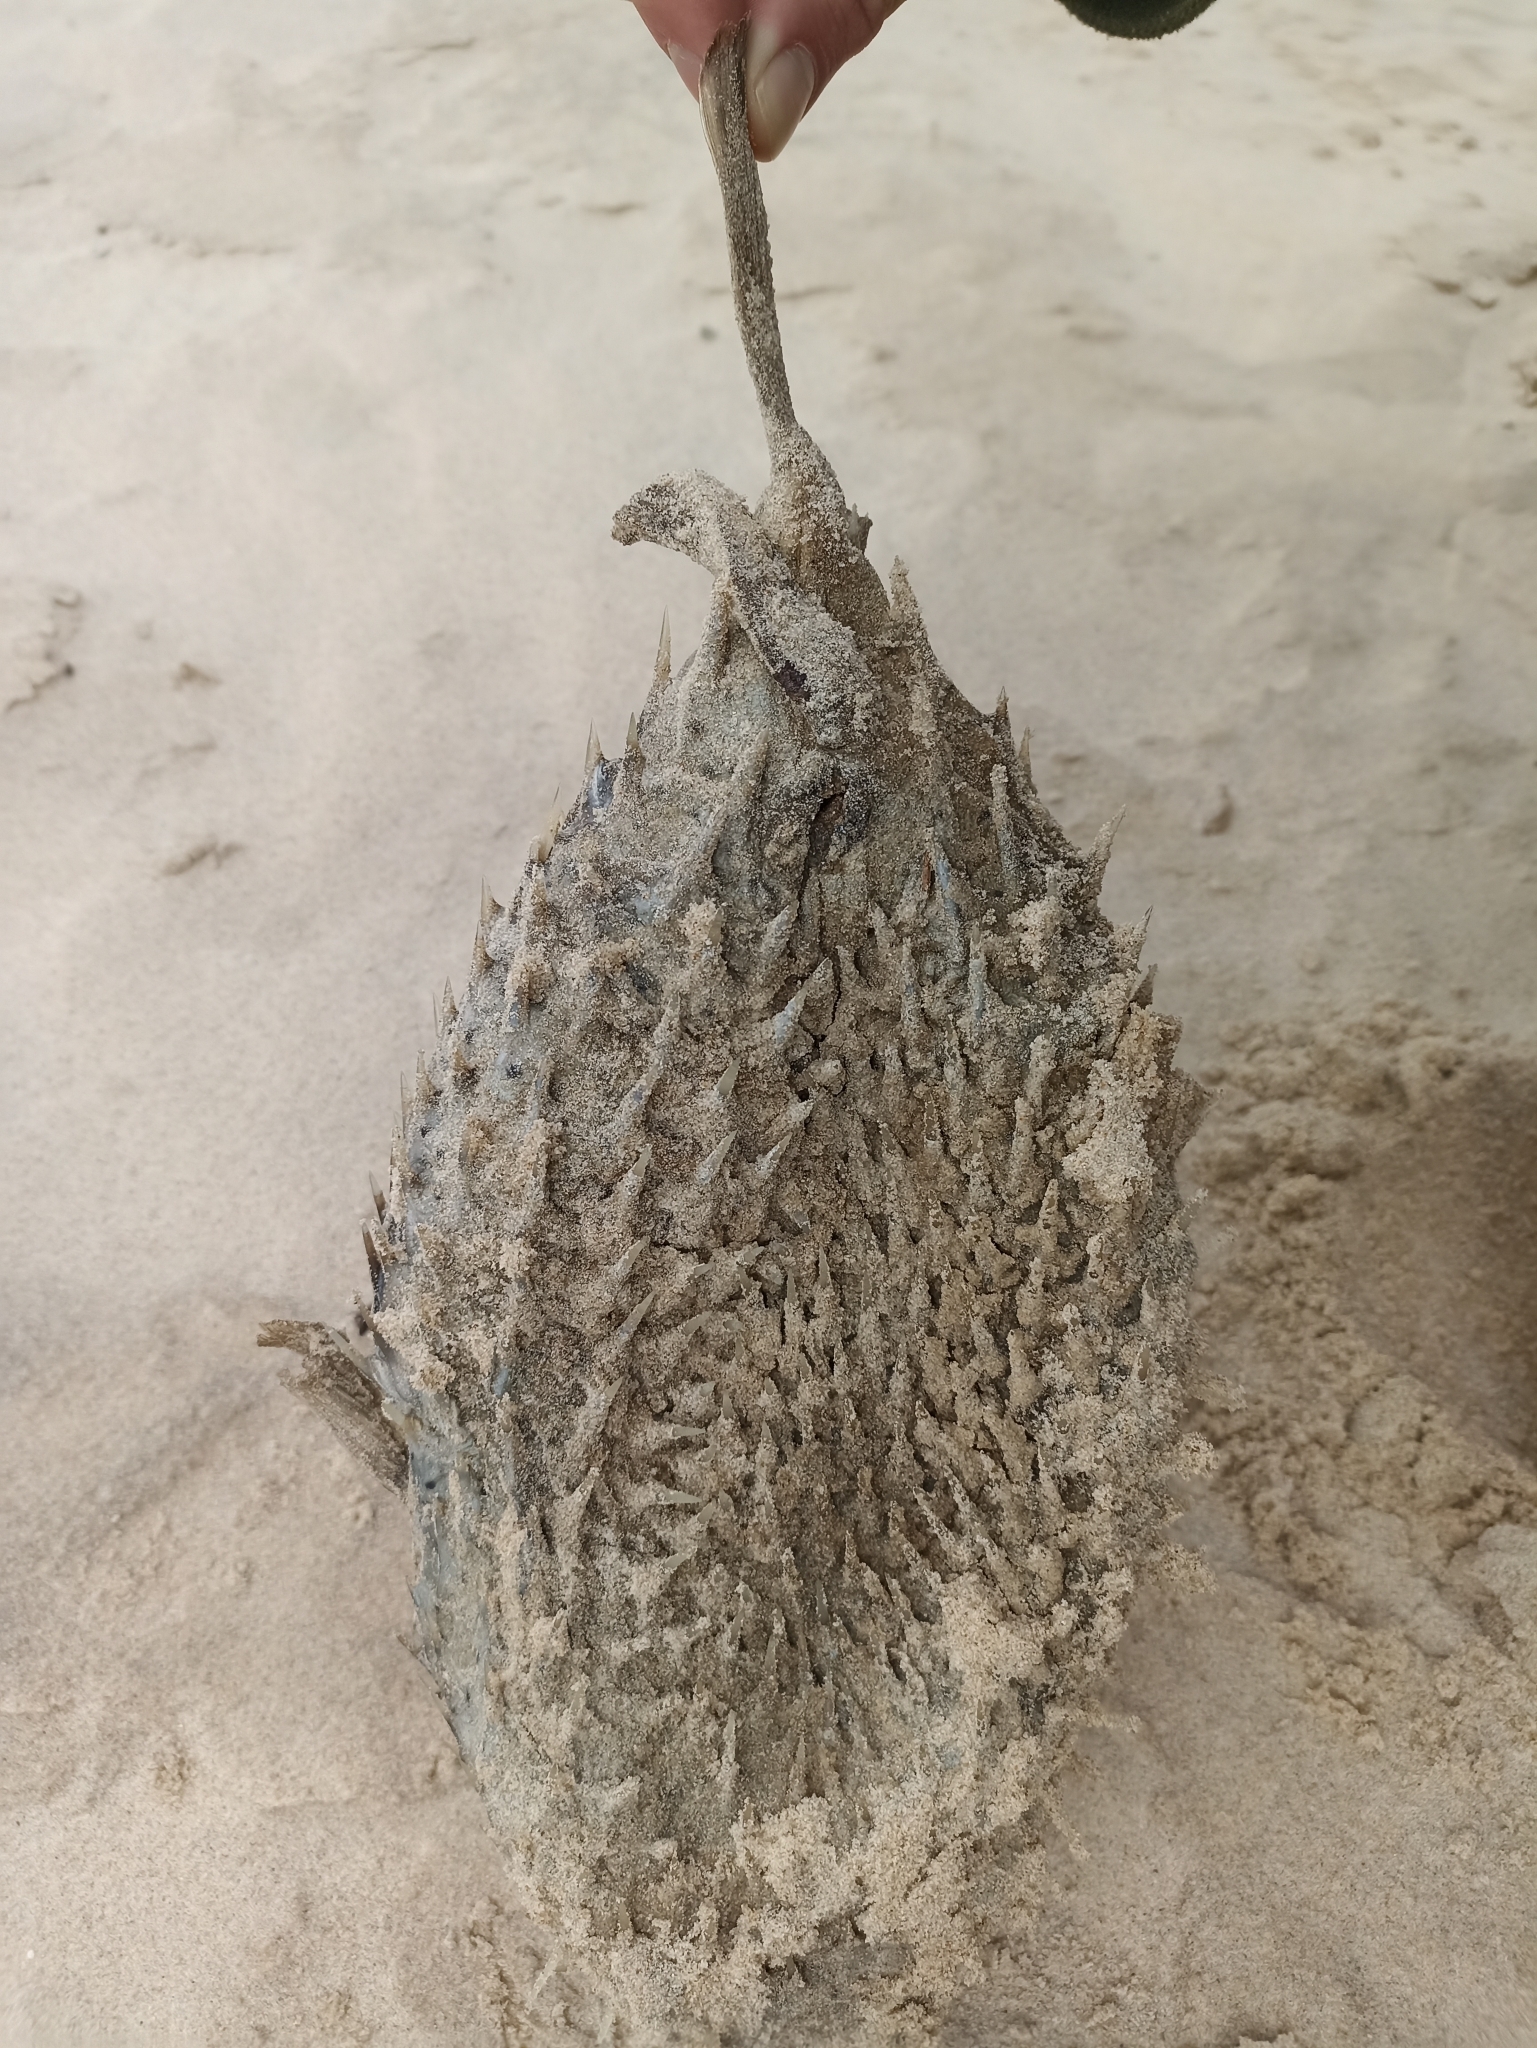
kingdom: Animalia
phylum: Chordata
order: Tetraodontiformes
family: Diodontidae
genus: Dicotylichthys
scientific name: Dicotylichthys punctulatus
